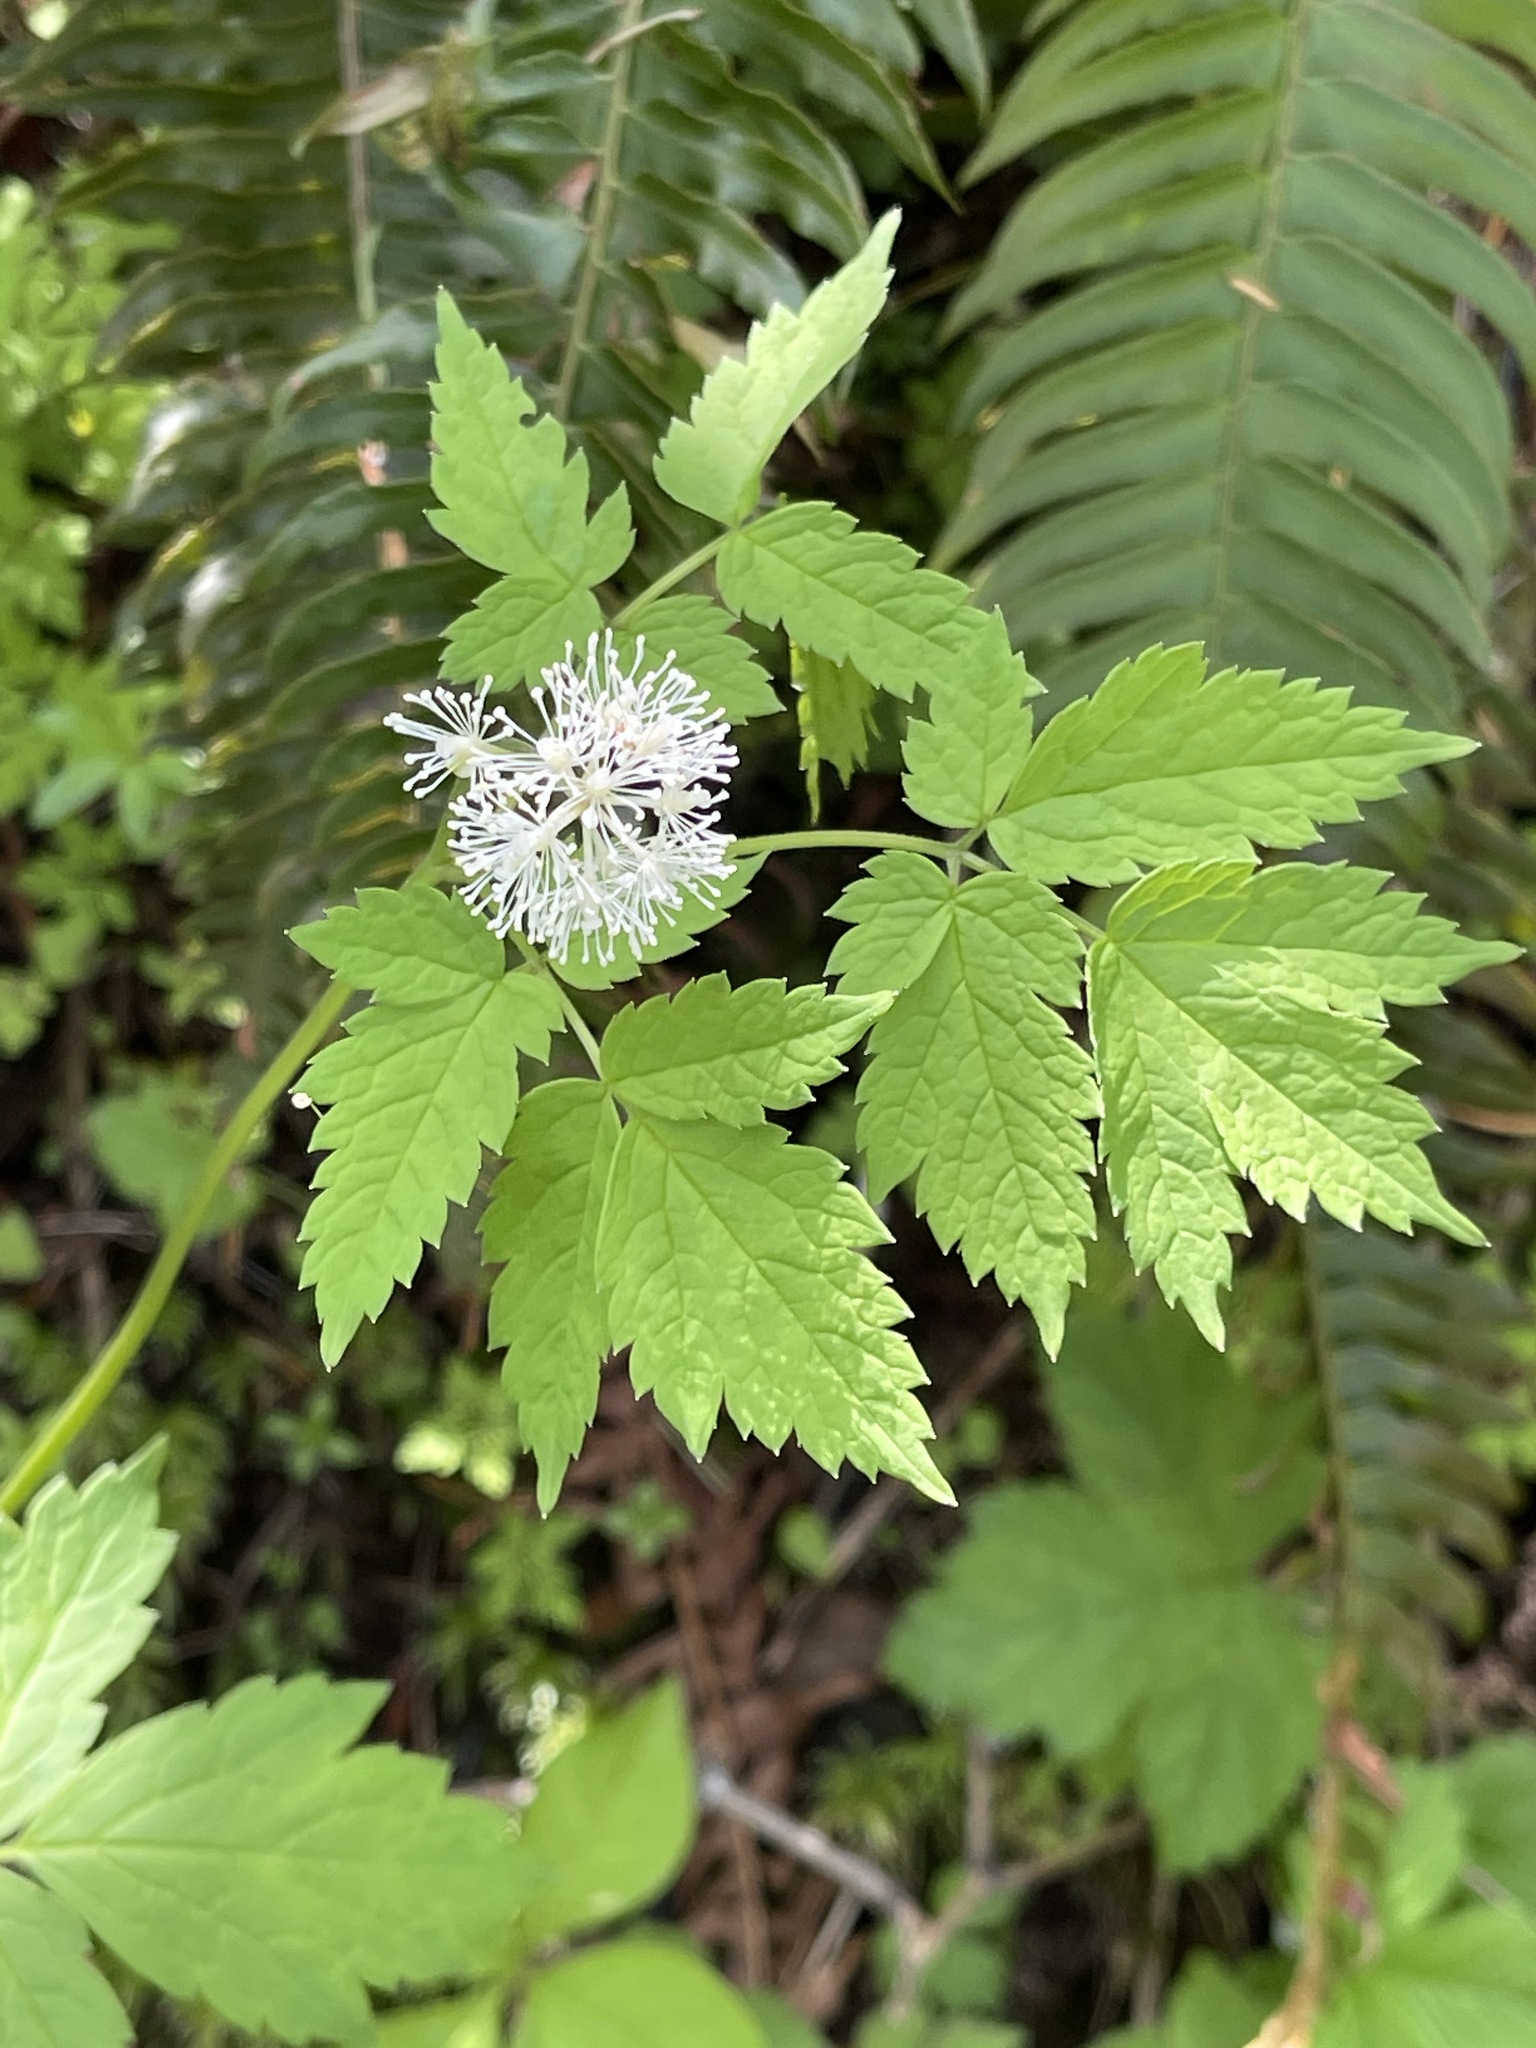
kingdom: Plantae
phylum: Tracheophyta
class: Magnoliopsida
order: Ranunculales
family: Ranunculaceae
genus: Actaea
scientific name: Actaea rubra
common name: Red baneberry
